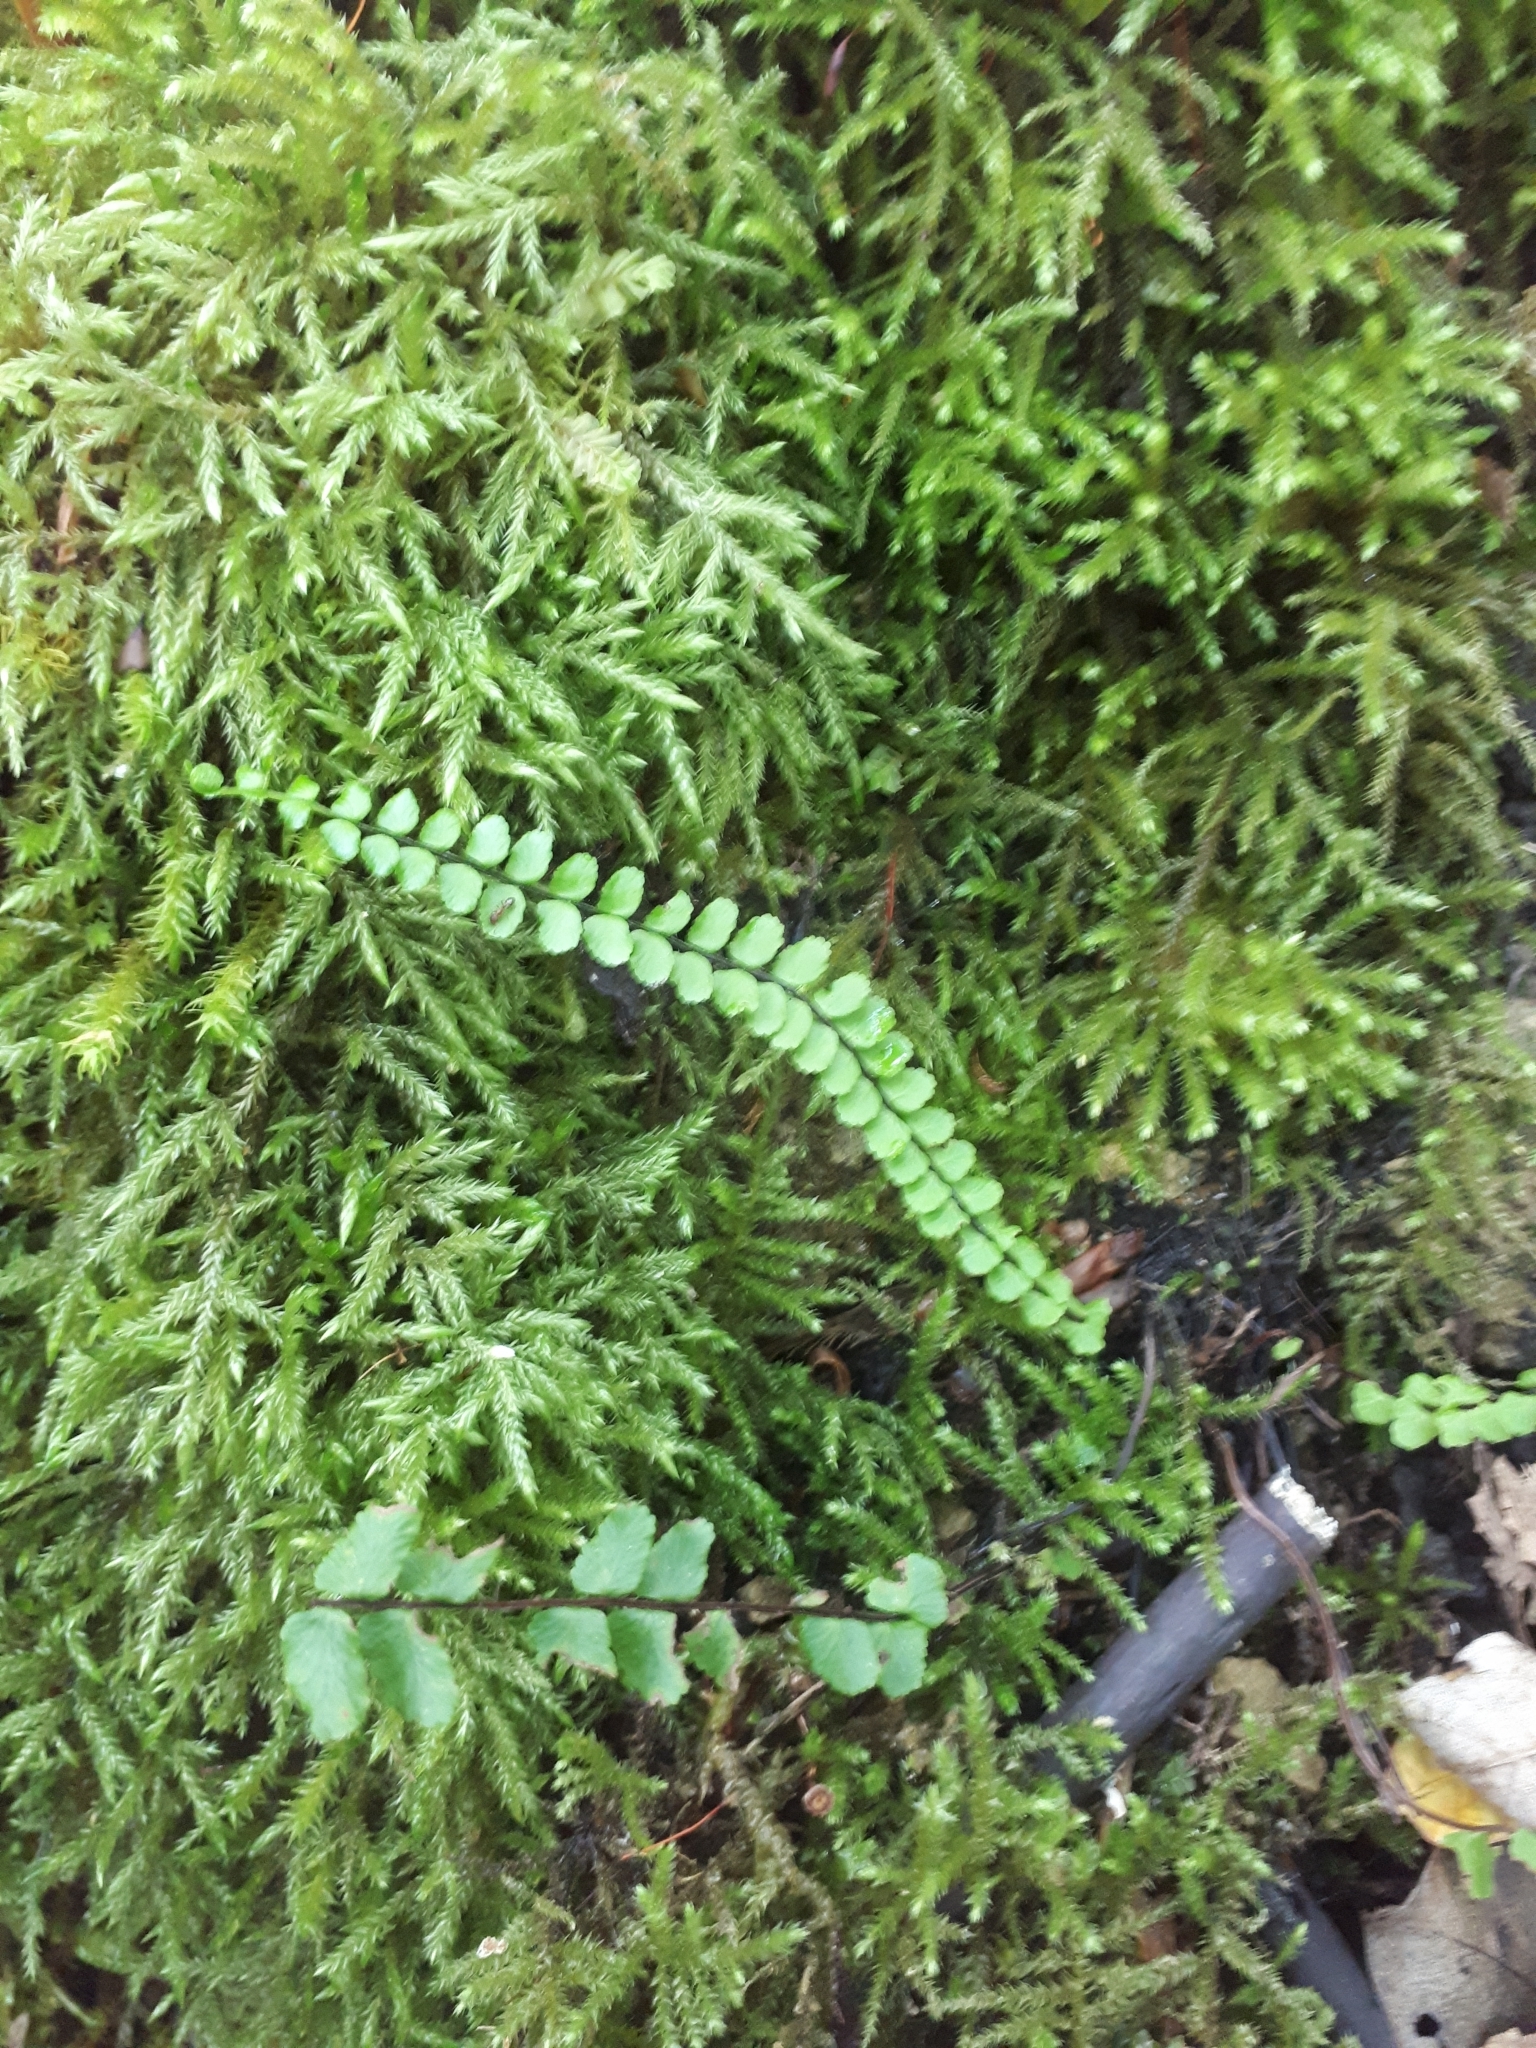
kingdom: Plantae
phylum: Tracheophyta
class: Polypodiopsida
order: Polypodiales
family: Aspleniaceae
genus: Asplenium
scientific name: Asplenium trichomanes
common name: Maidenhair spleenwort
